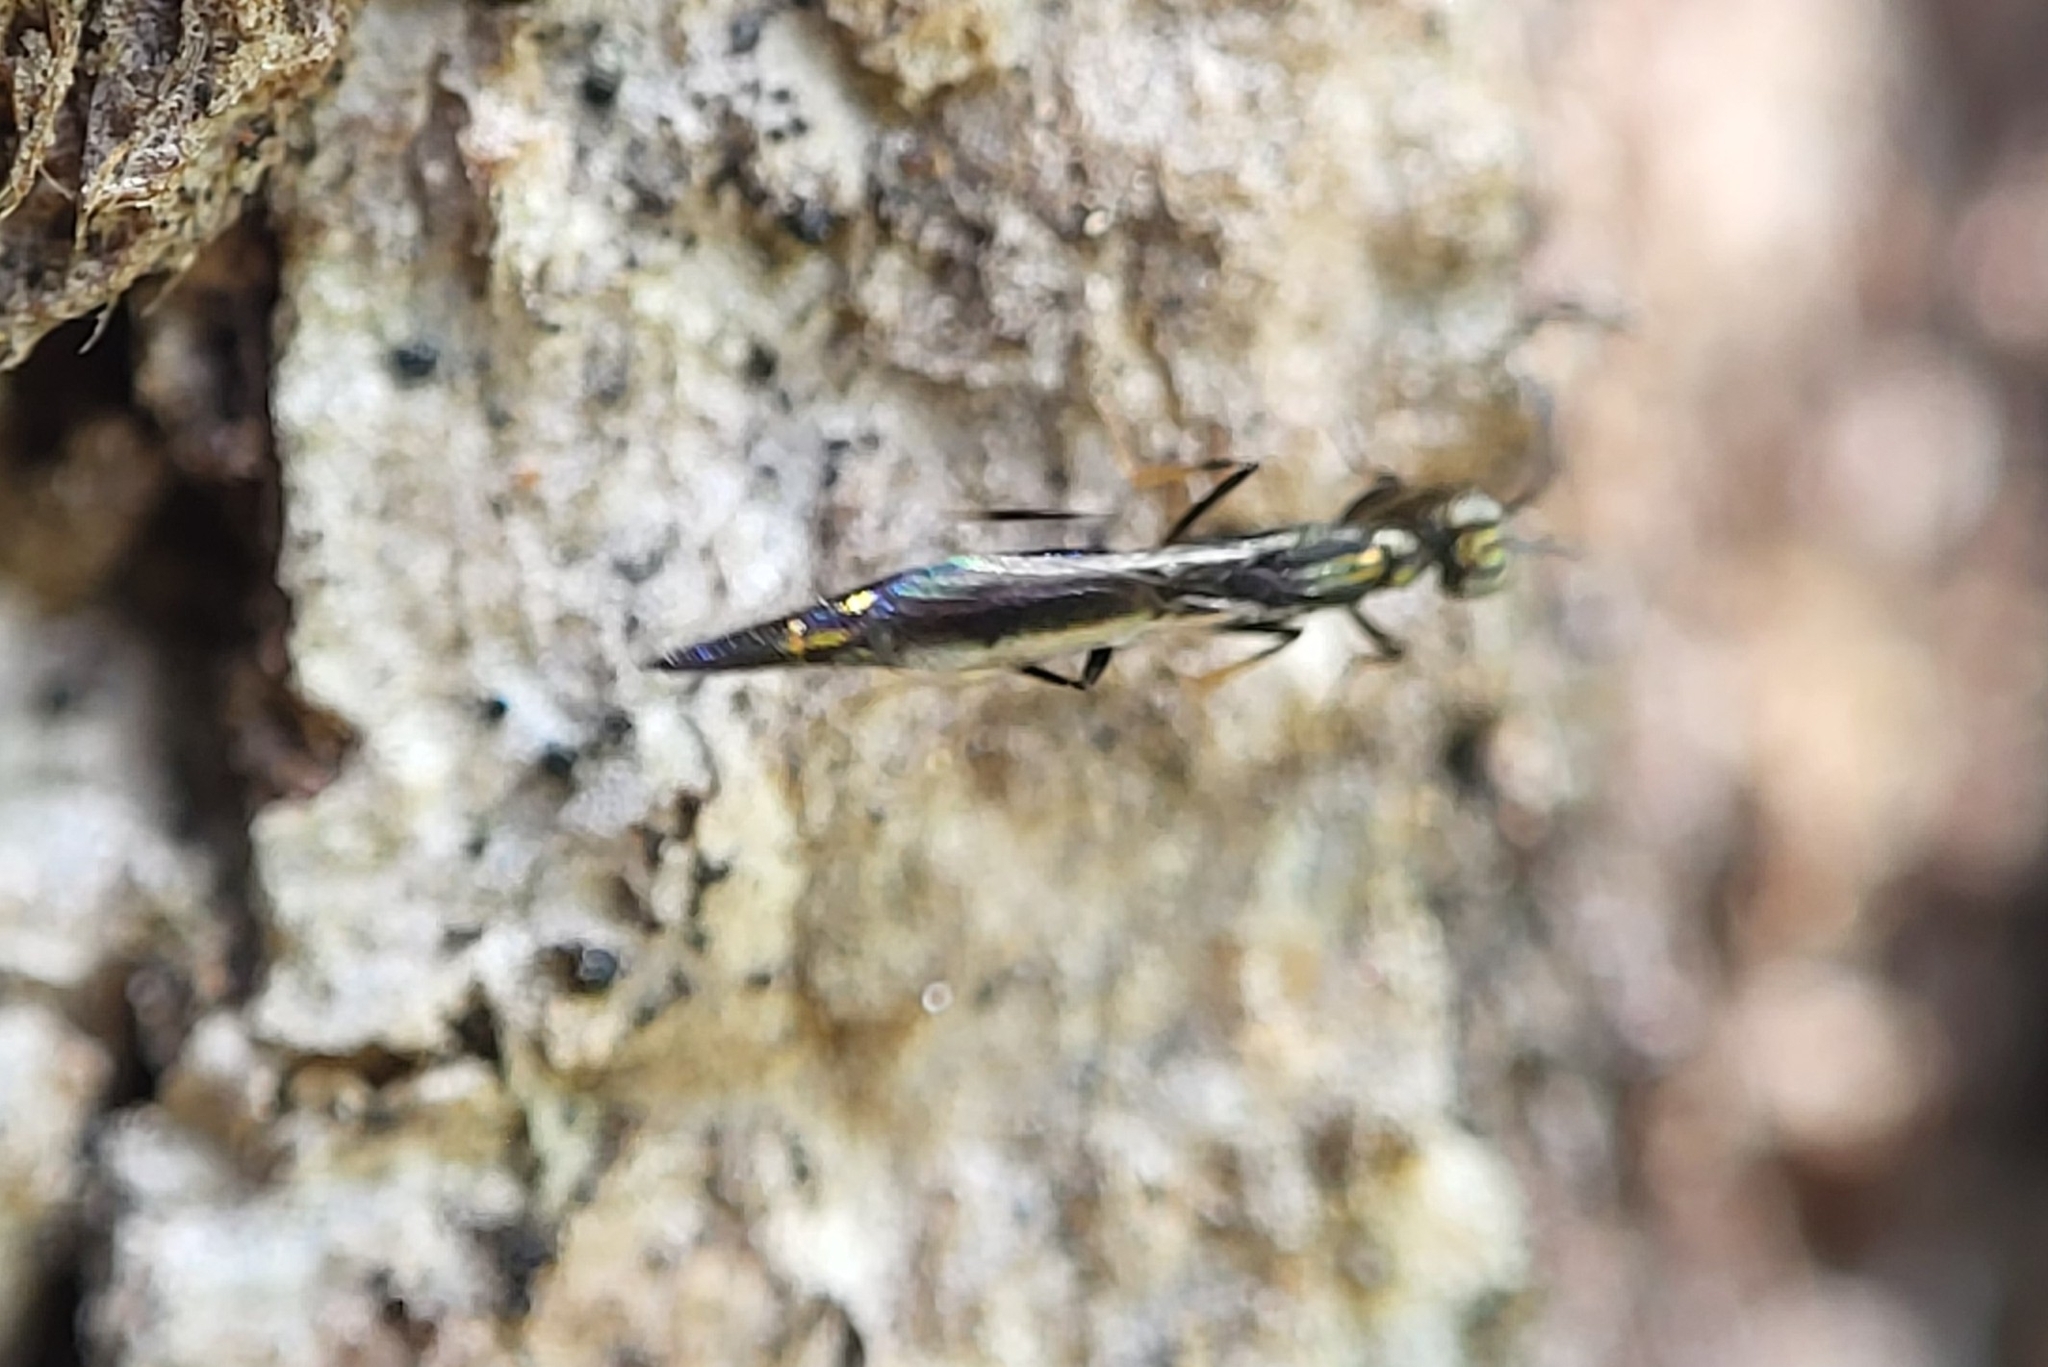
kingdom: Animalia
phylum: Arthropoda
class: Insecta
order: Hymenoptera
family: Eupelmidae
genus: Brasema
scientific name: Brasema rhadinosa
